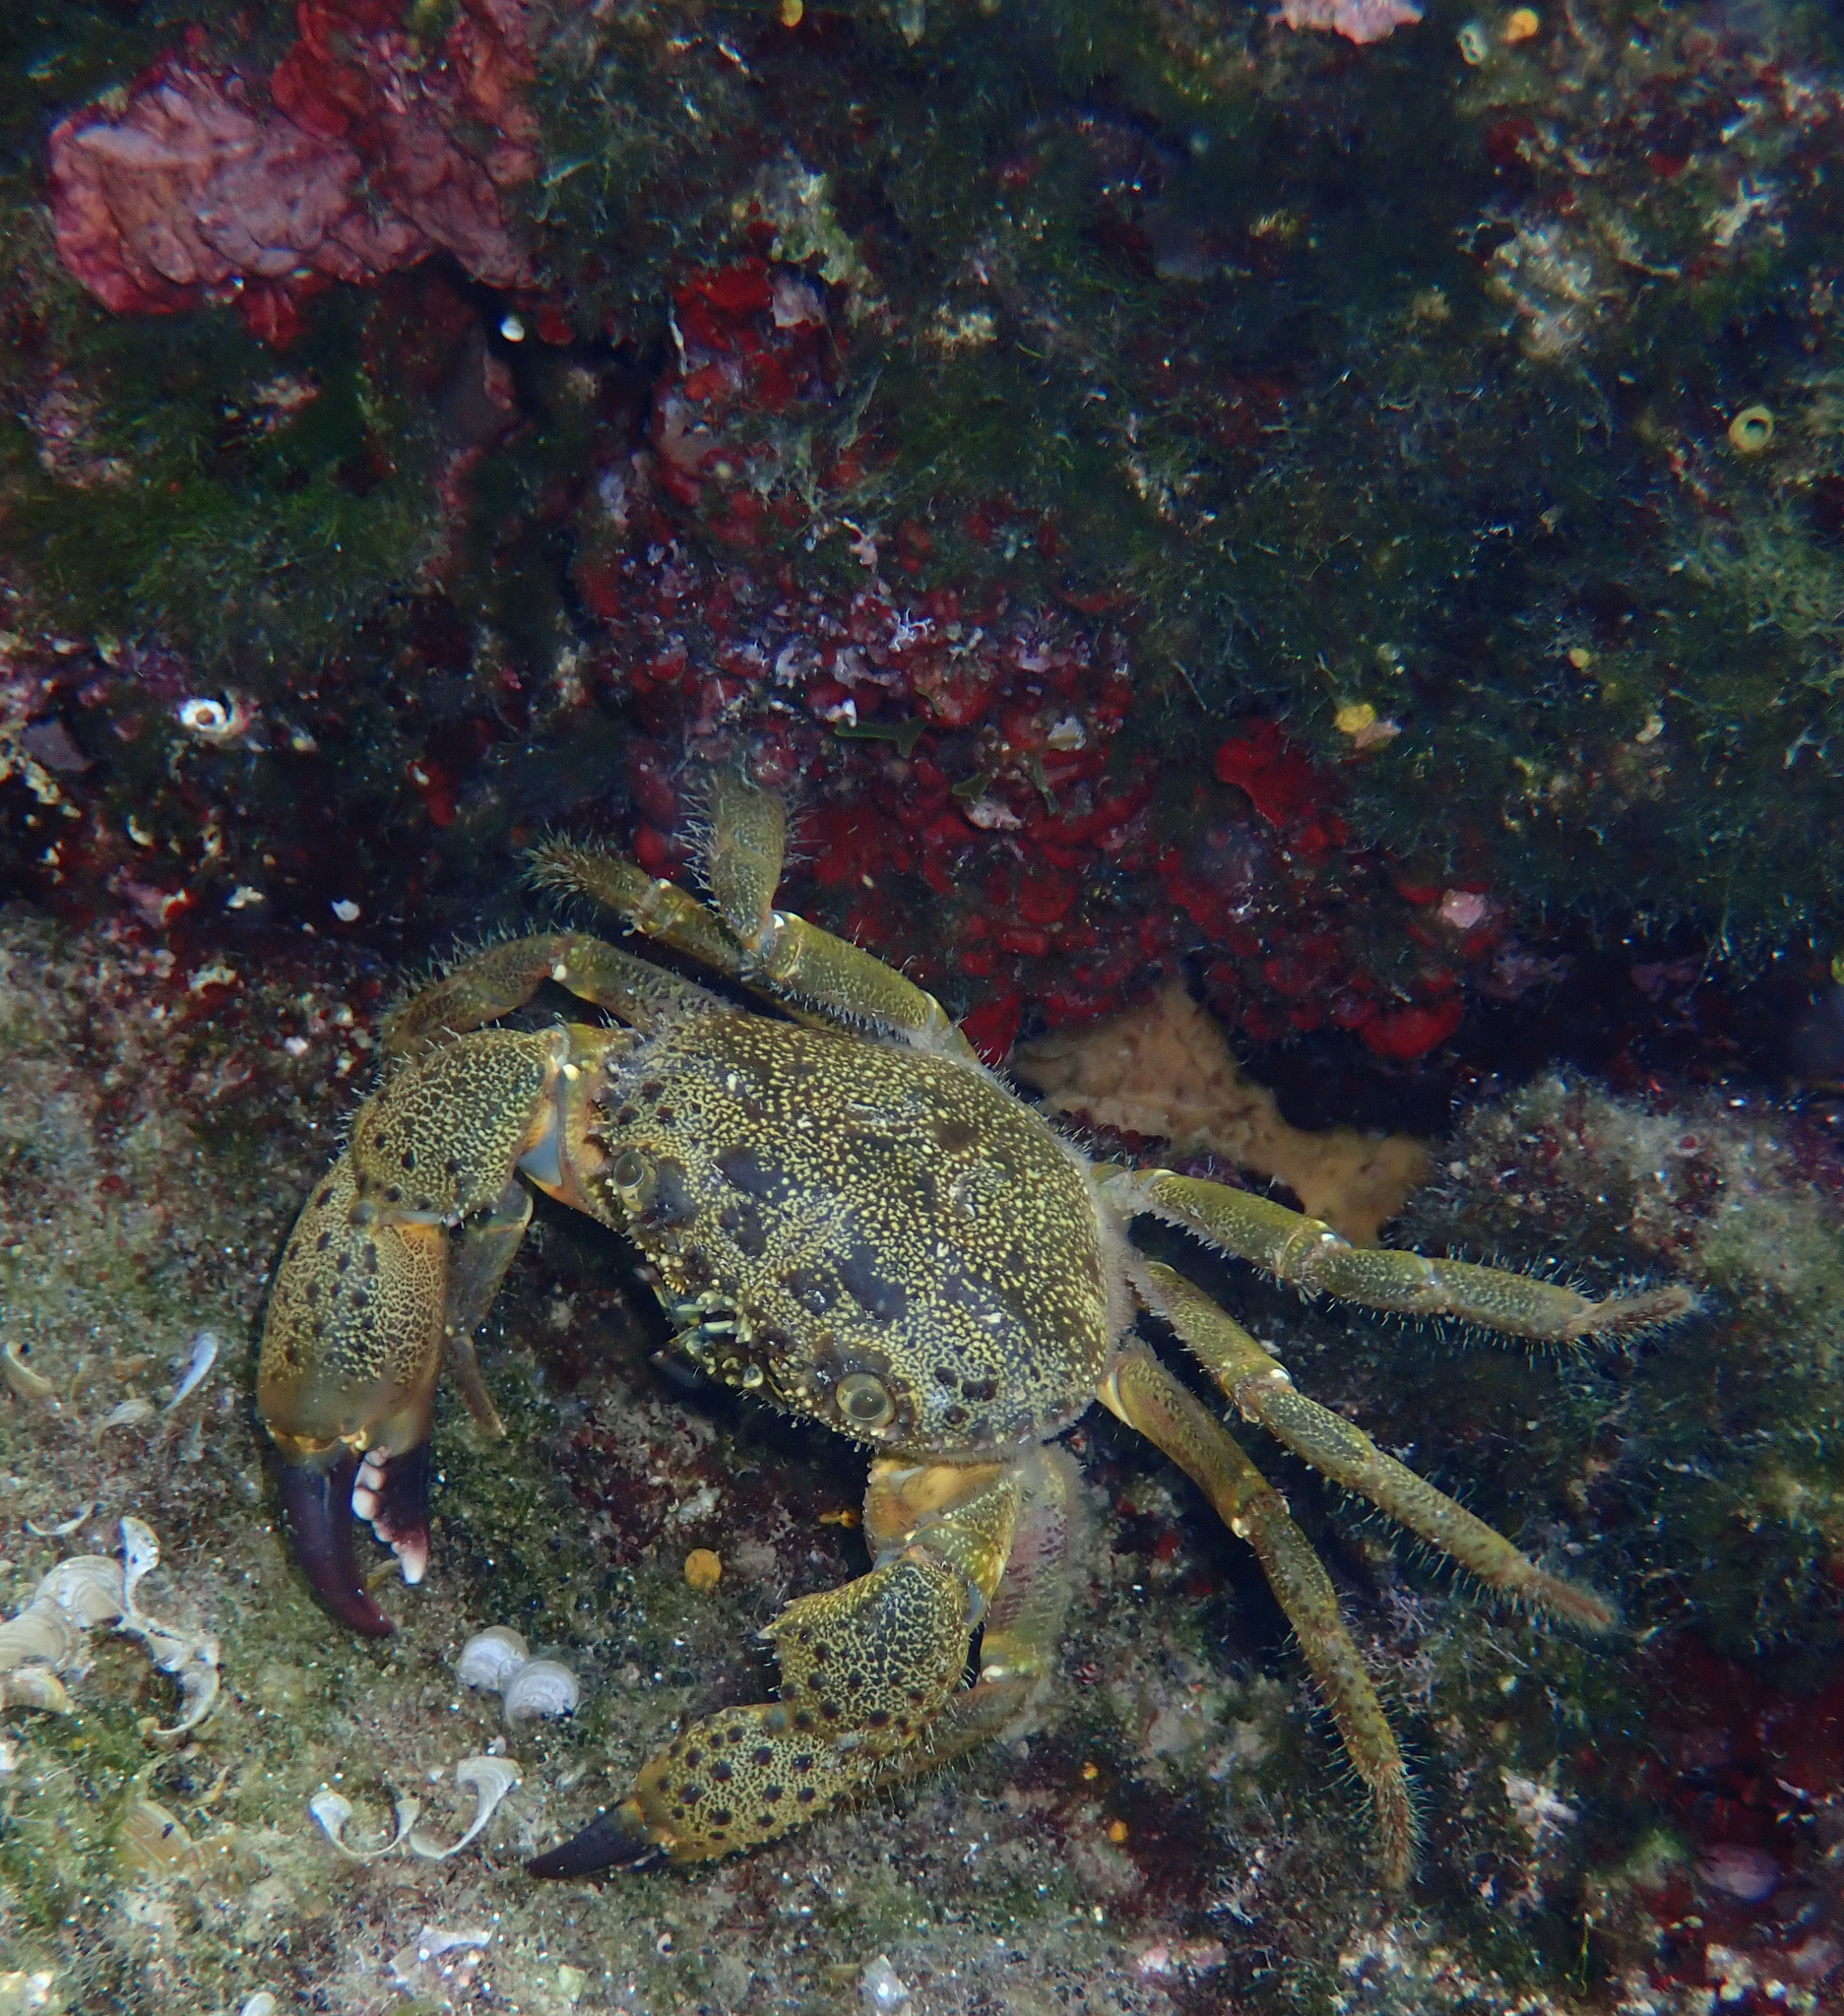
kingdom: Animalia
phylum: Arthropoda
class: Malacostraca
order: Decapoda
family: Eriphiidae
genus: Eriphia
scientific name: Eriphia verrucosa
